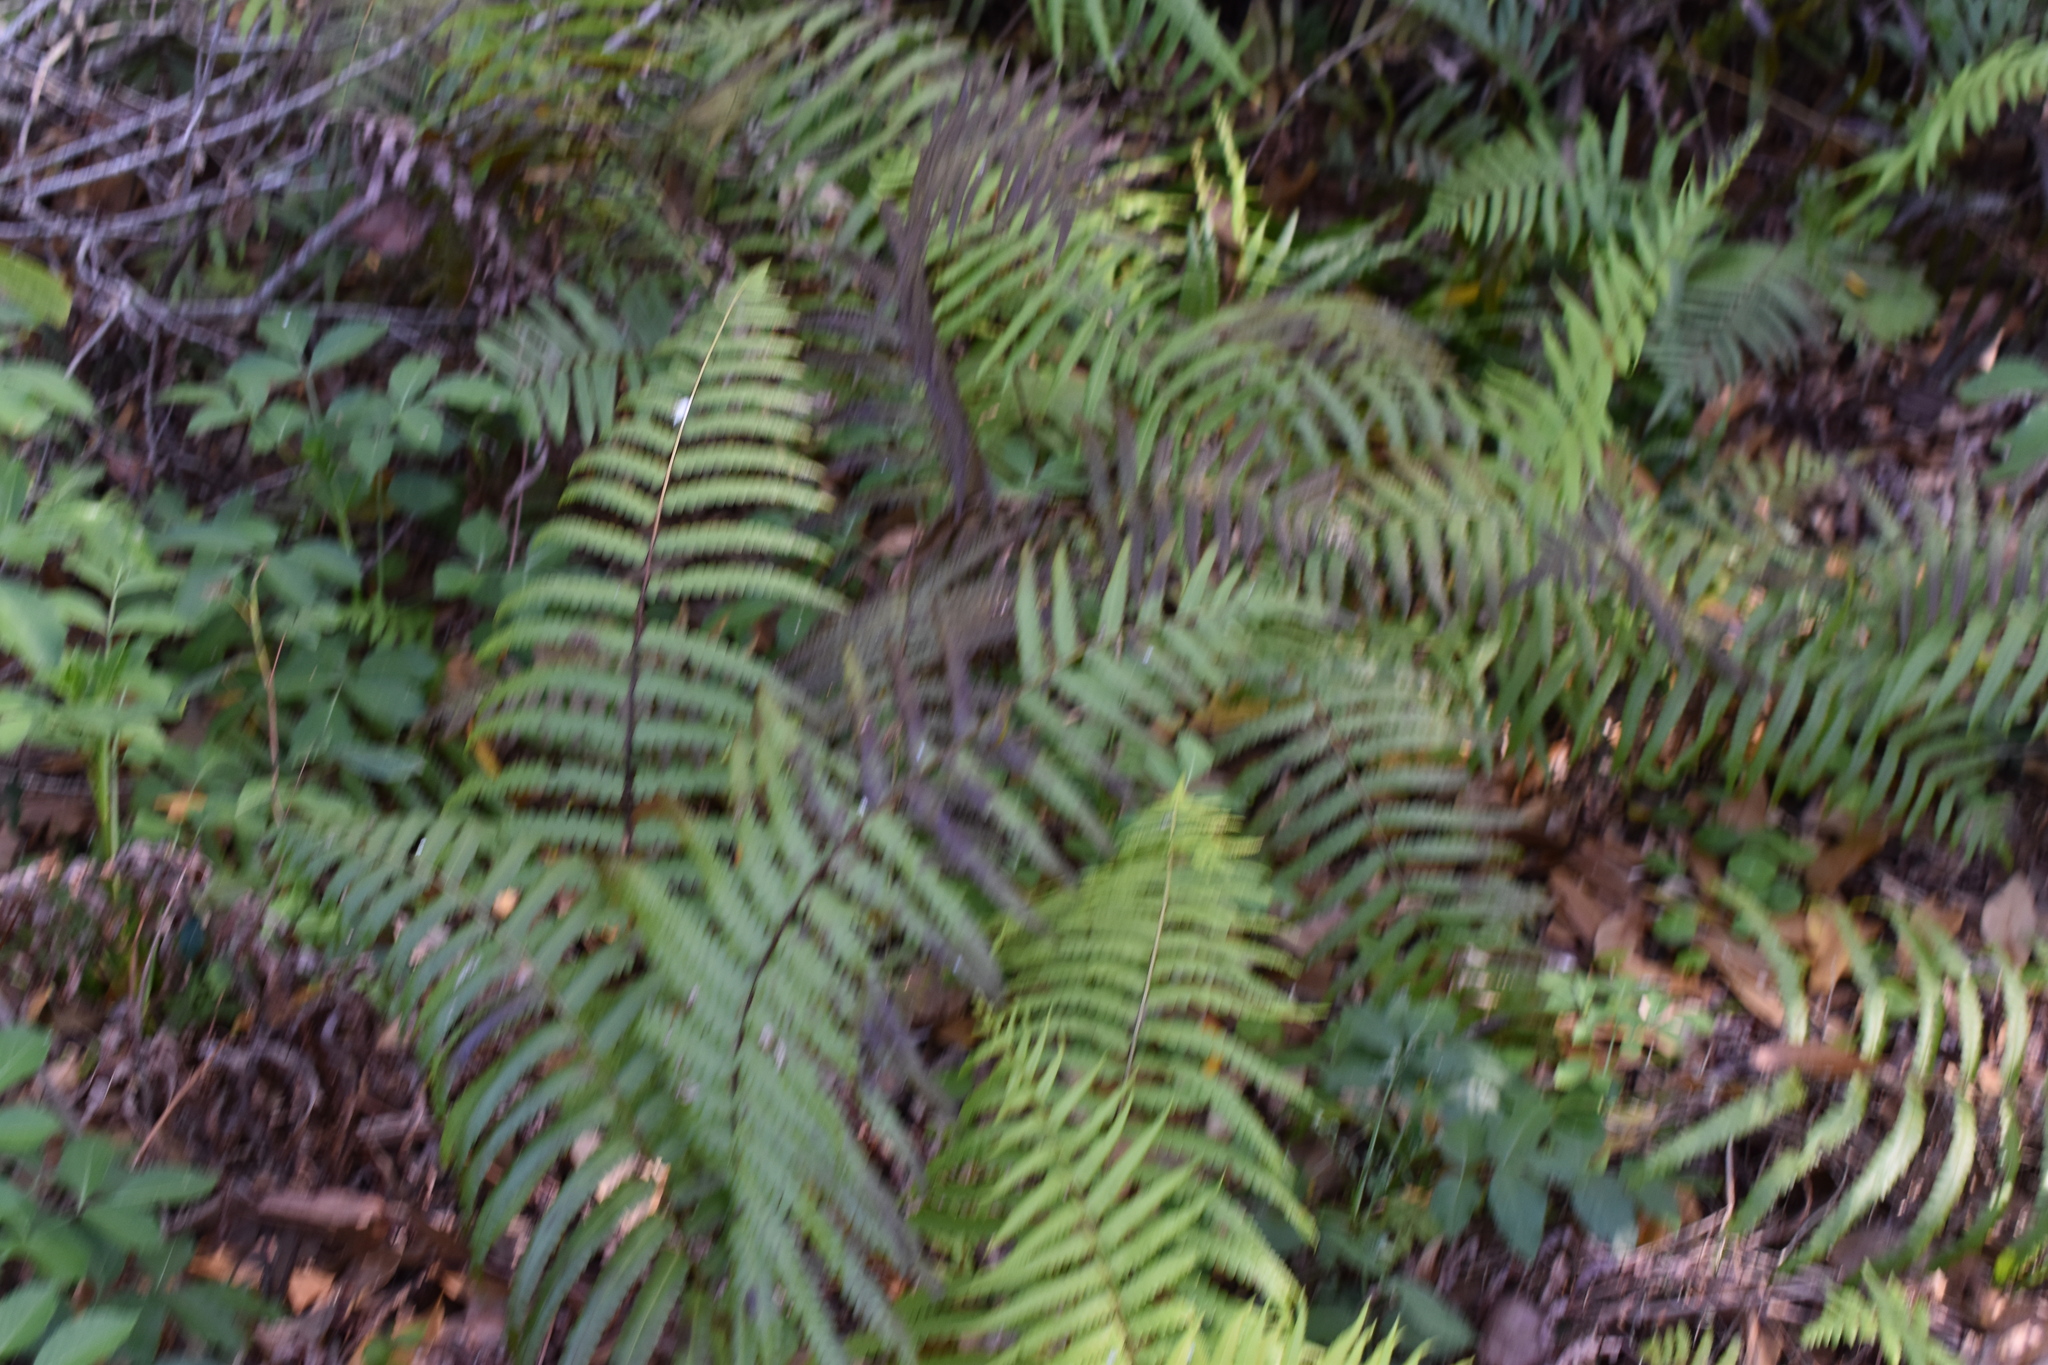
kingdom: Plantae
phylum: Tracheophyta
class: Polypodiopsida
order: Polypodiales
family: Thelypteridaceae
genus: Cyclosorus
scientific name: Cyclosorus interruptus
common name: Neke fern
